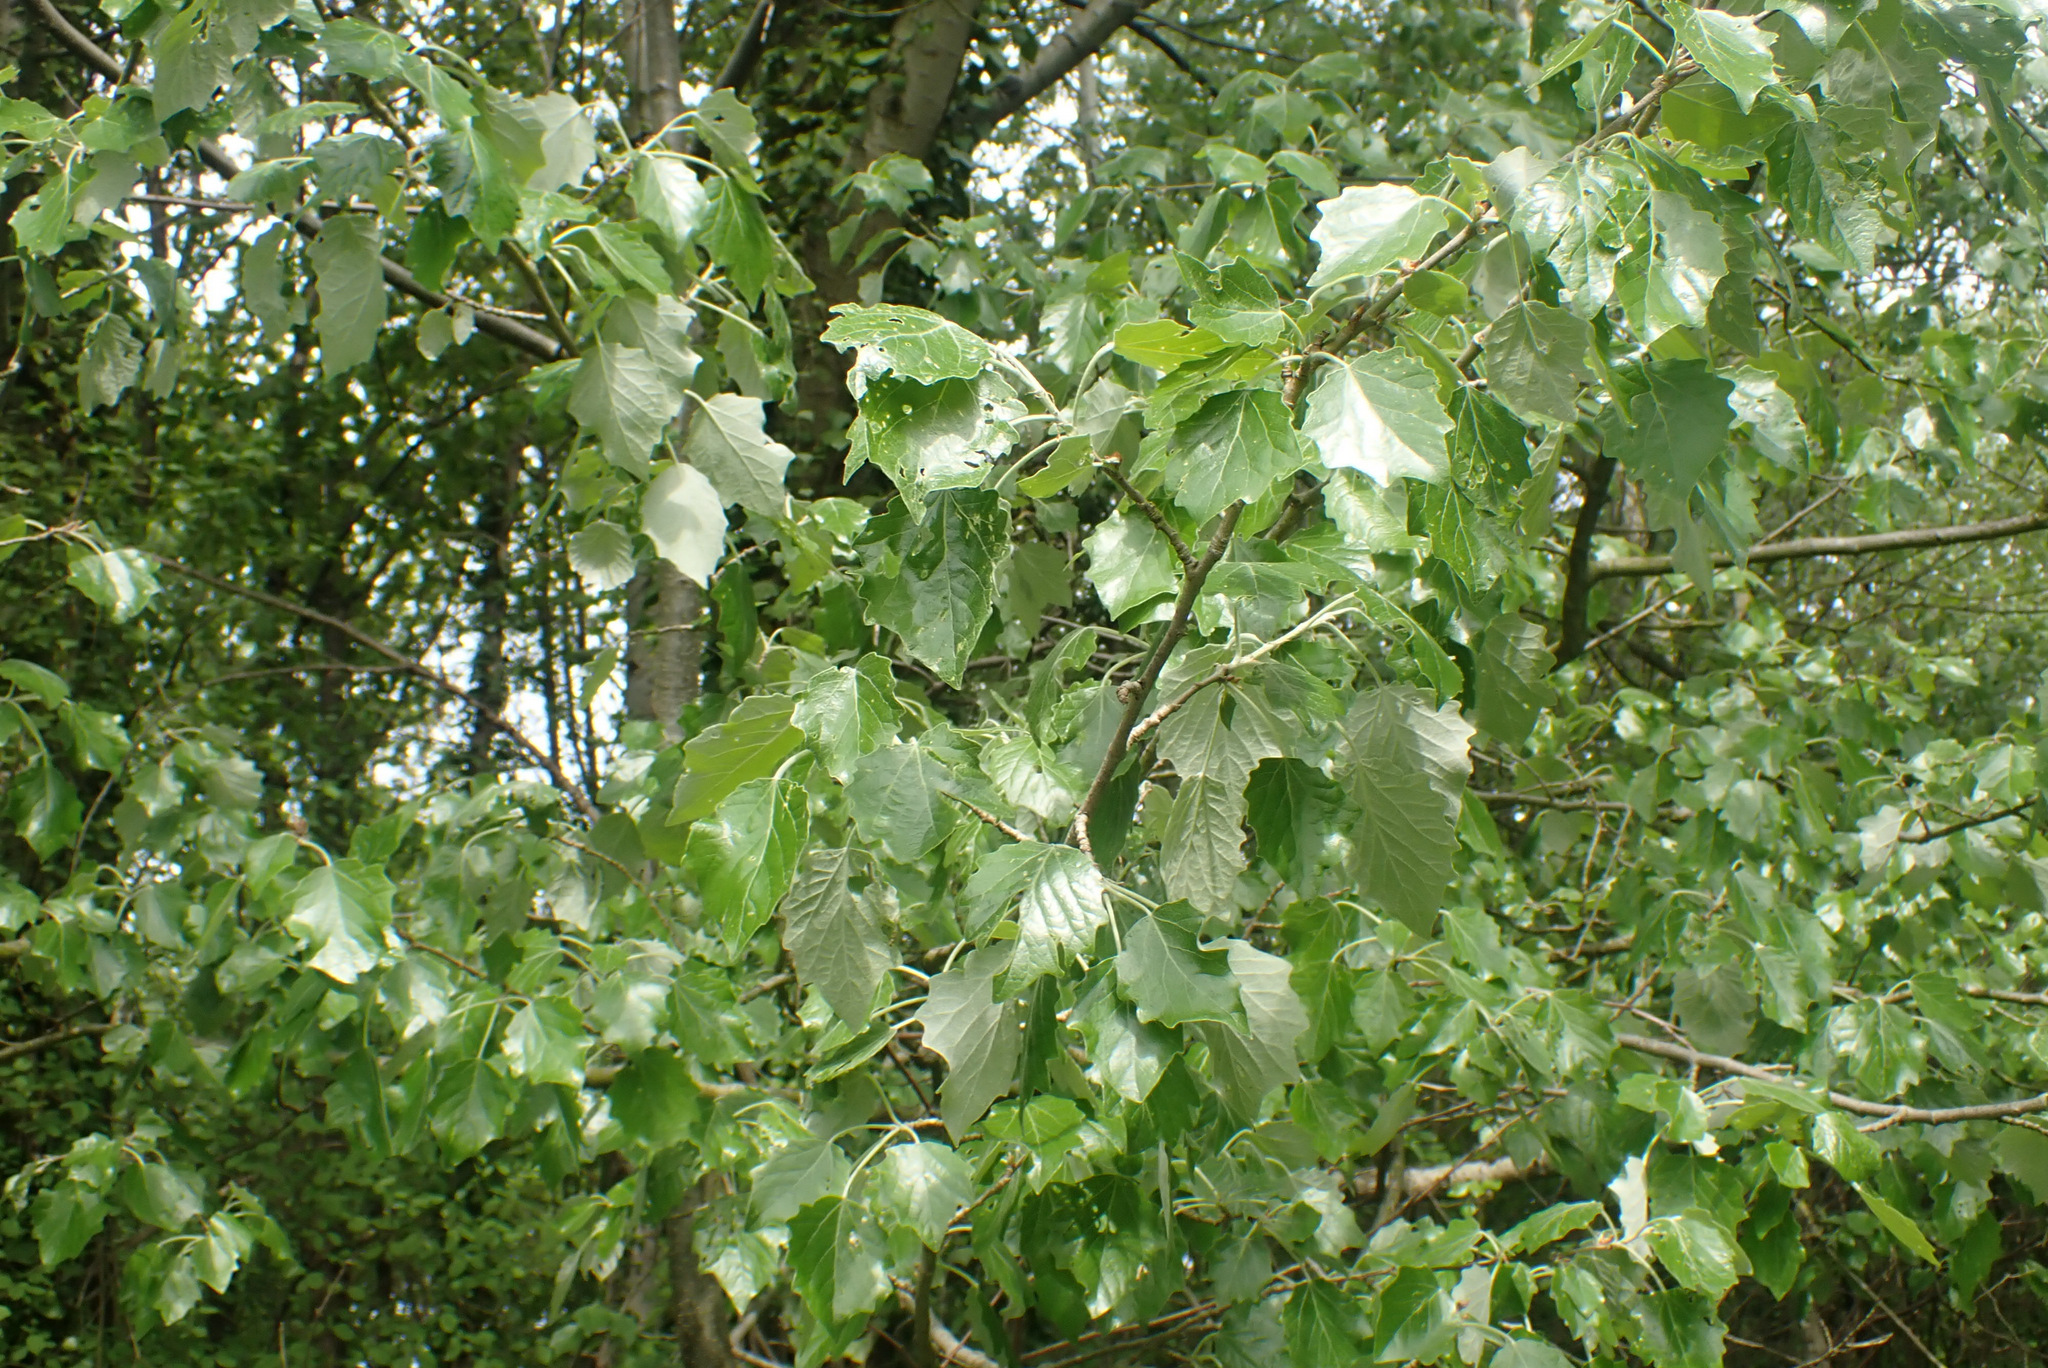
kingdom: Plantae
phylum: Tracheophyta
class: Magnoliopsida
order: Malpighiales
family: Salicaceae
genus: Populus
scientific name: Populus canescens
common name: Gray poplar
